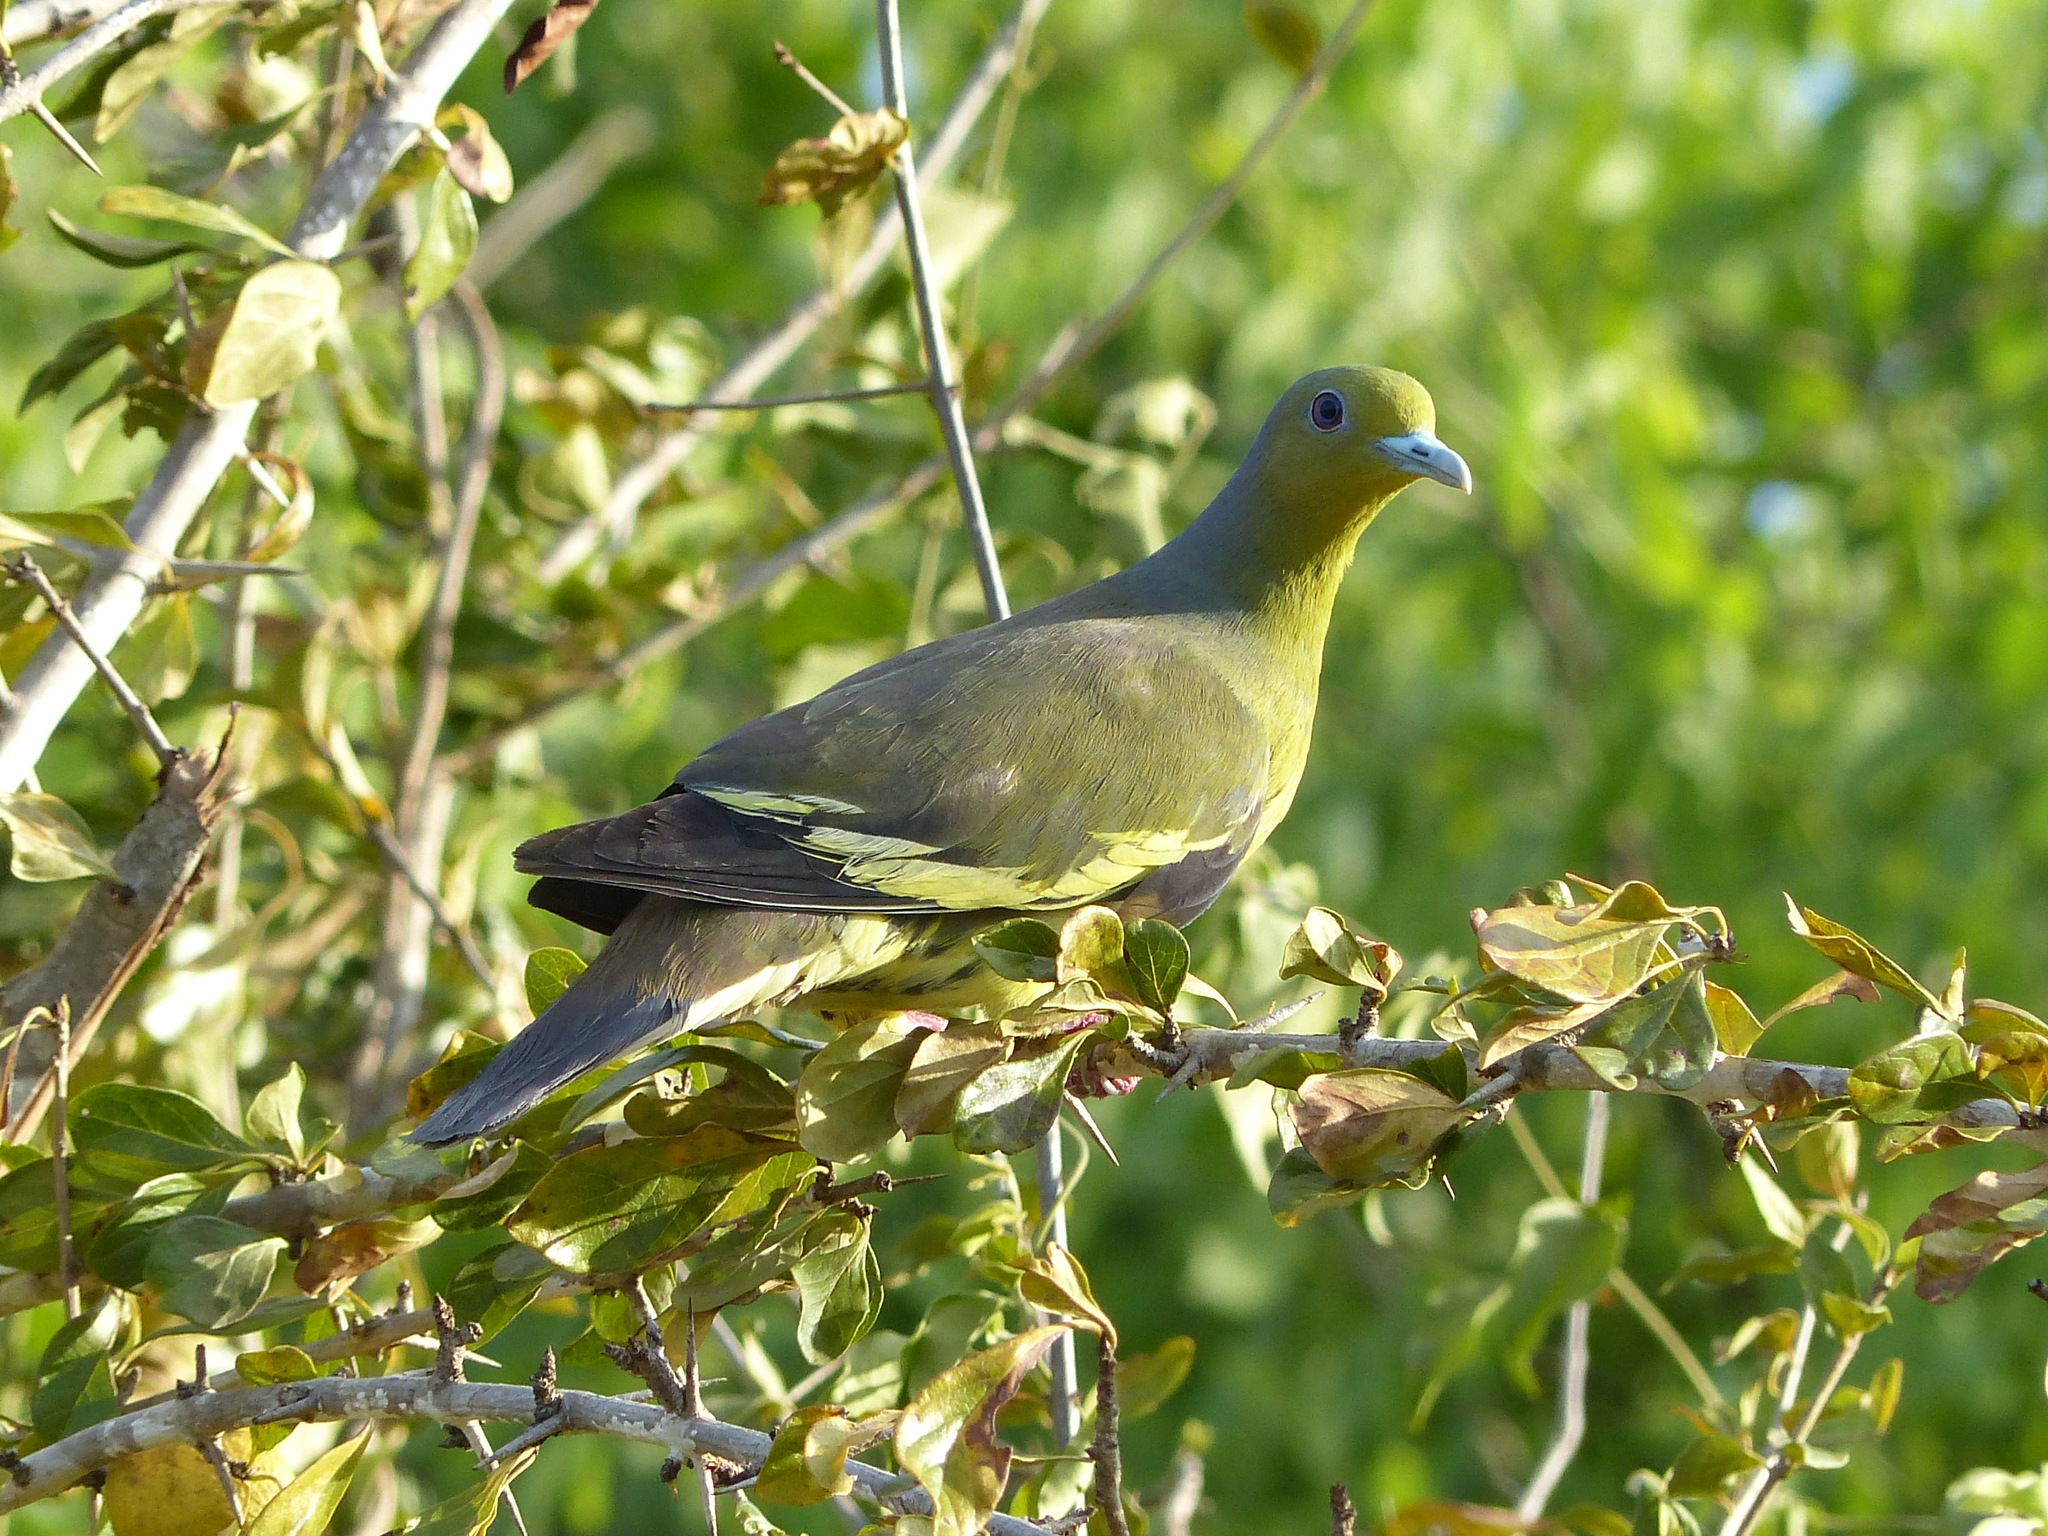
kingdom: Animalia
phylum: Chordata
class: Aves
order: Columbiformes
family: Columbidae
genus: Treron
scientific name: Treron bicinctus
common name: Orange-breasted green pigeon
